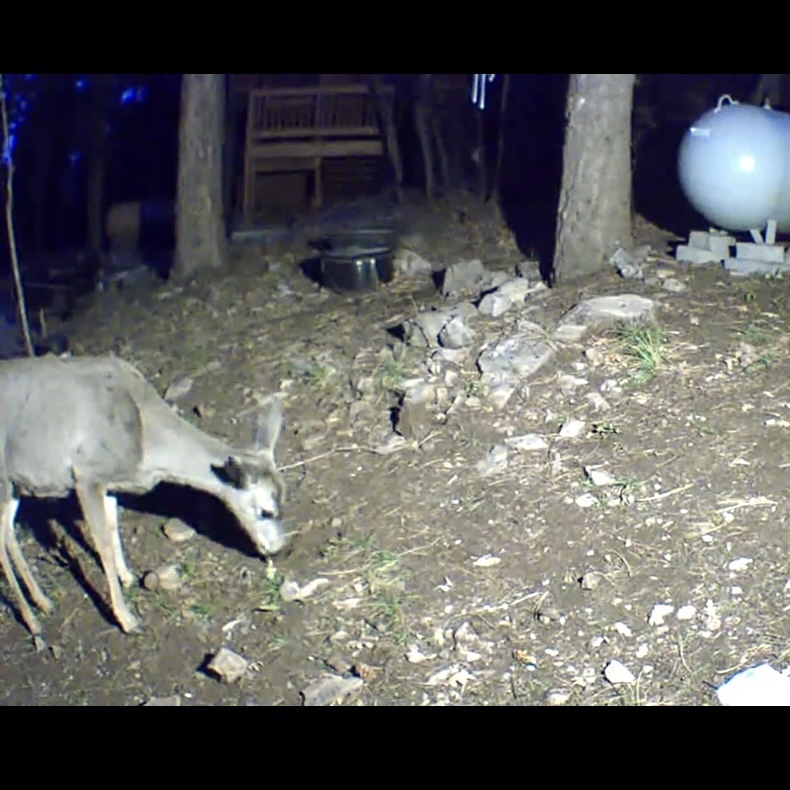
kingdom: Animalia
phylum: Chordata
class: Mammalia
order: Artiodactyla
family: Cervidae
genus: Odocoileus
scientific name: Odocoileus hemionus
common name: Mule deer
